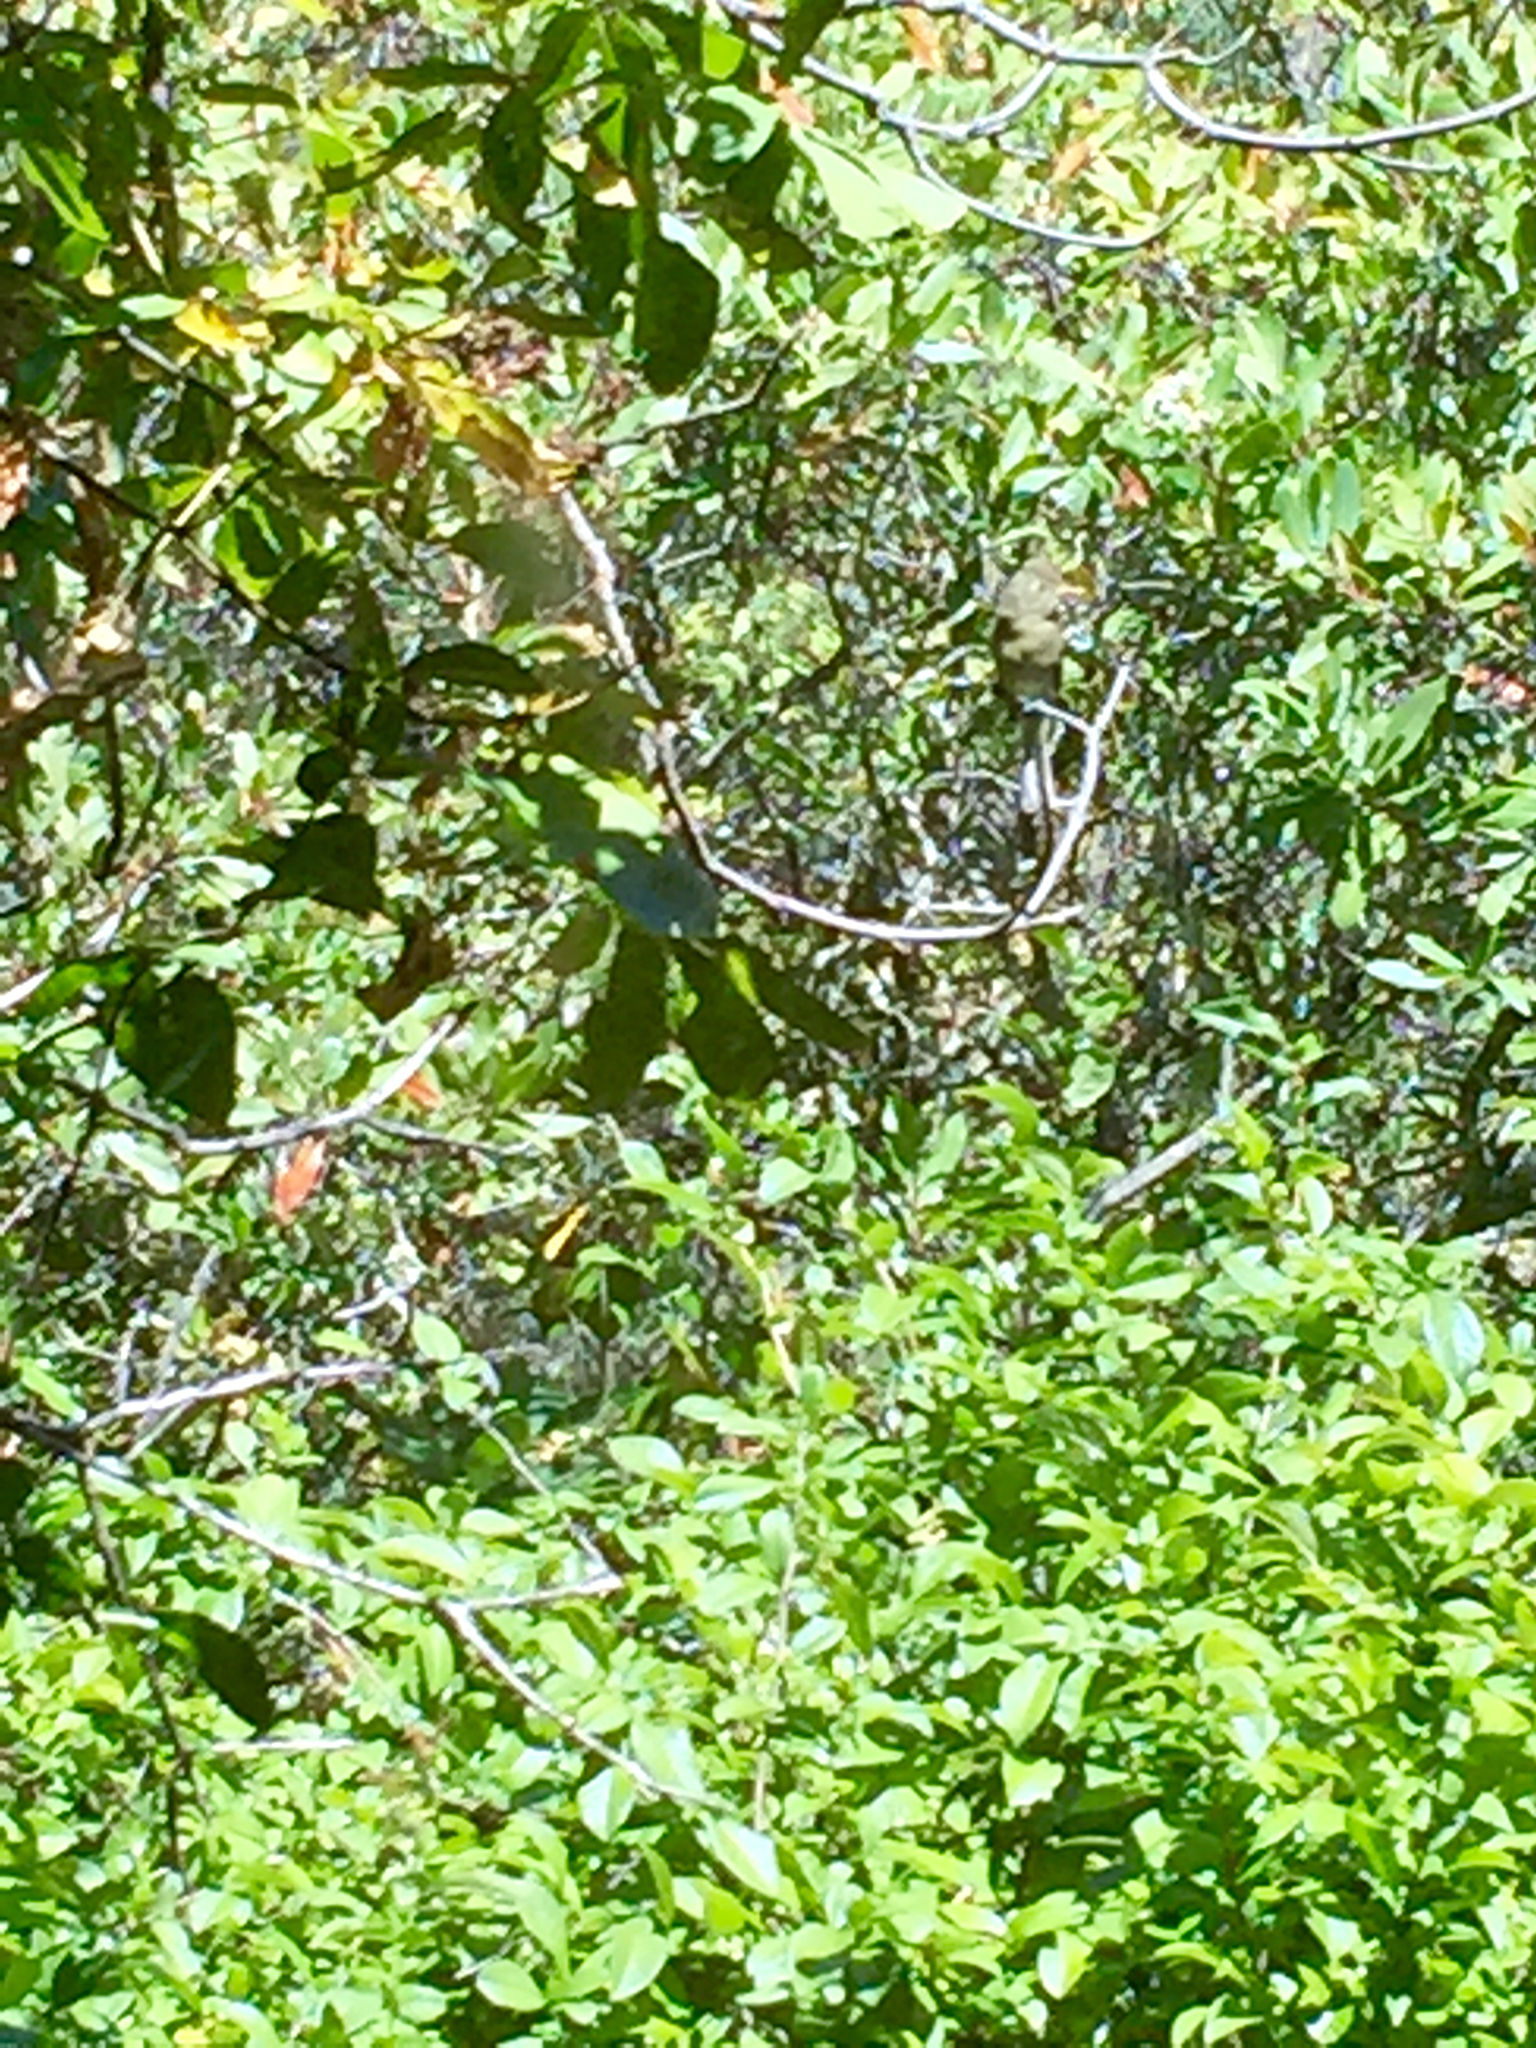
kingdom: Animalia
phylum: Chordata
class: Aves
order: Passeriformes
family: Tyrannidae
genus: Empidonax
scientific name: Empidonax difficilis
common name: Pacific-slope flycatcher
